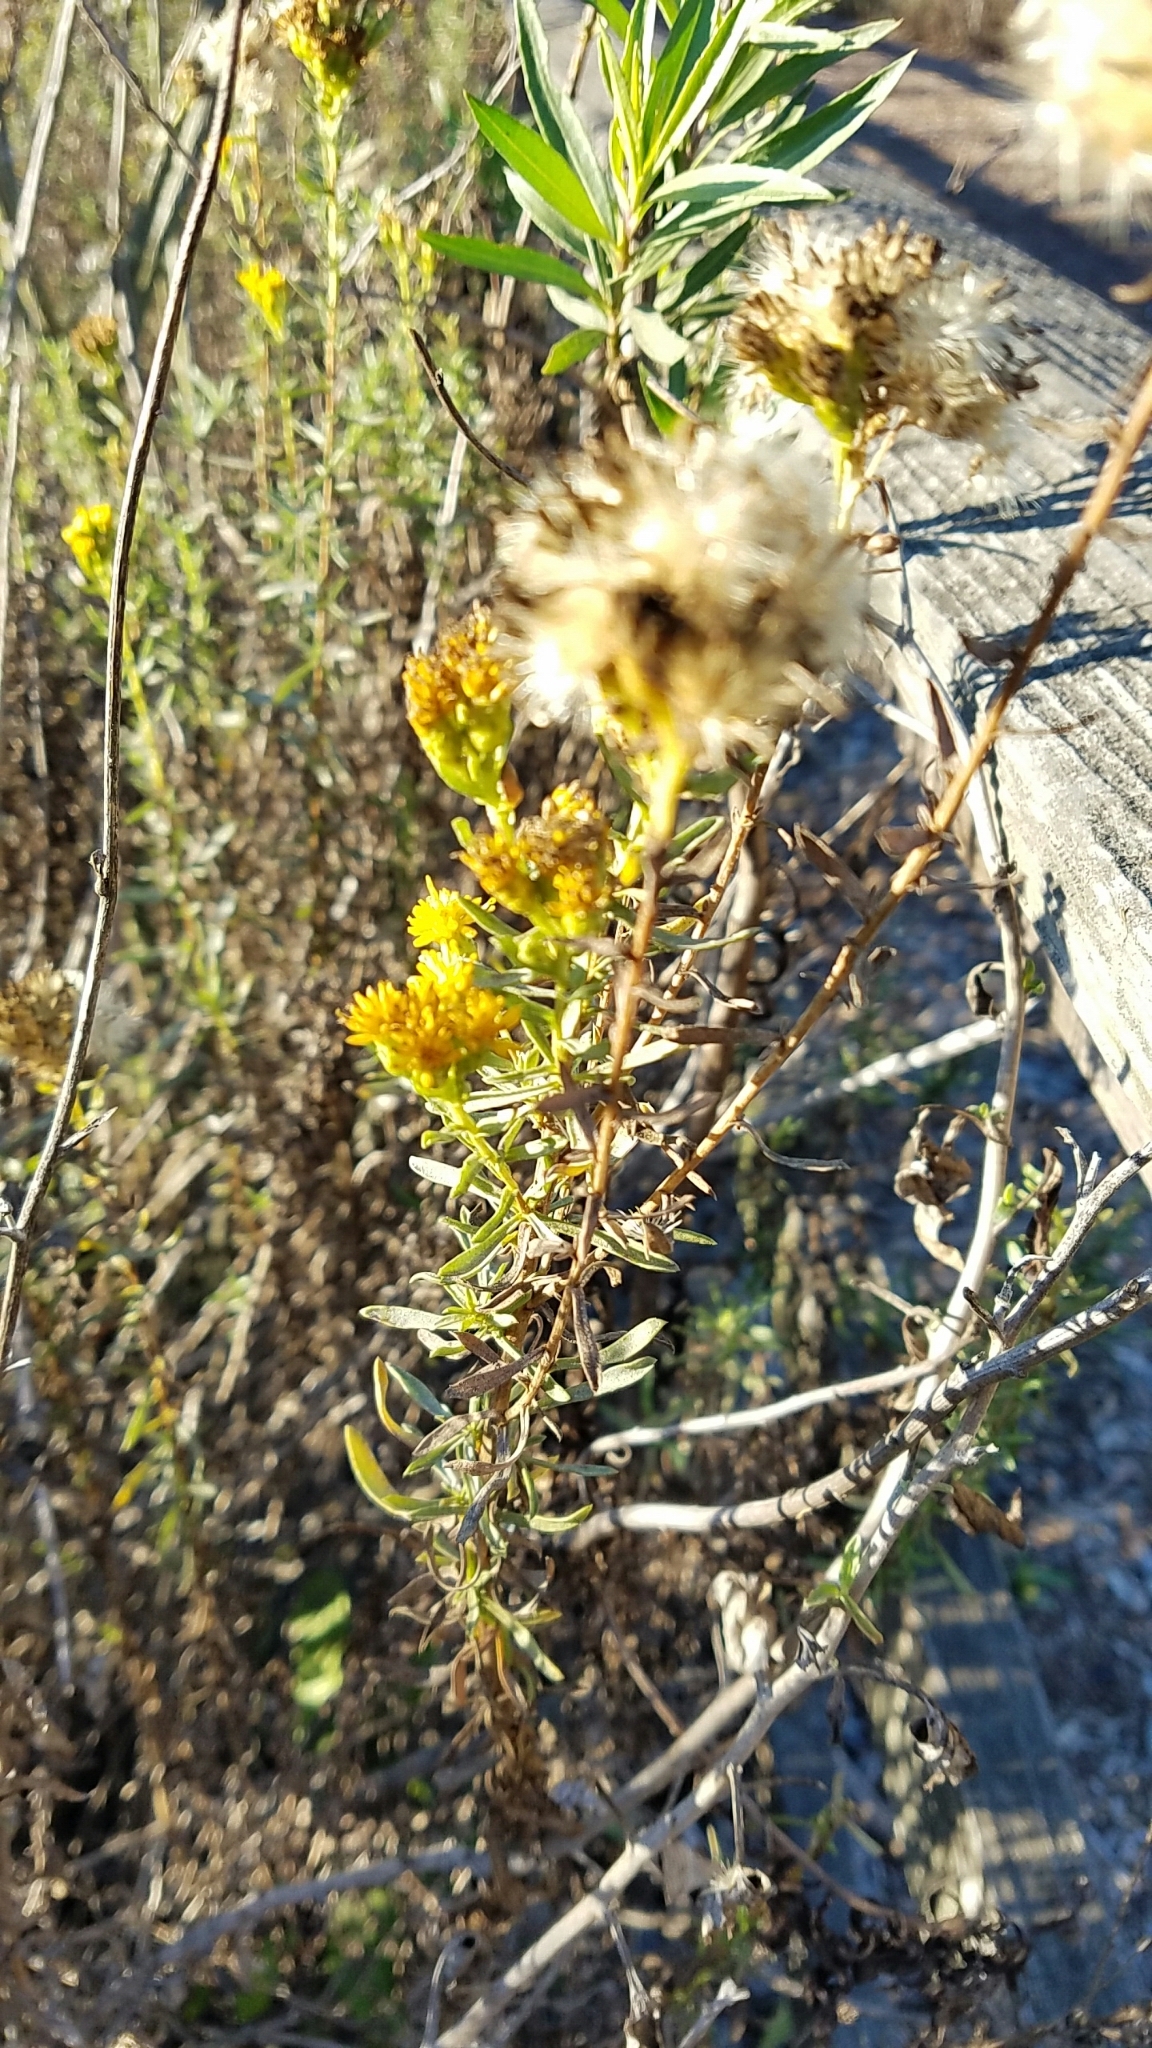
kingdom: Plantae
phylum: Tracheophyta
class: Magnoliopsida
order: Asterales
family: Asteraceae
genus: Isocoma
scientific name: Isocoma menziesii
